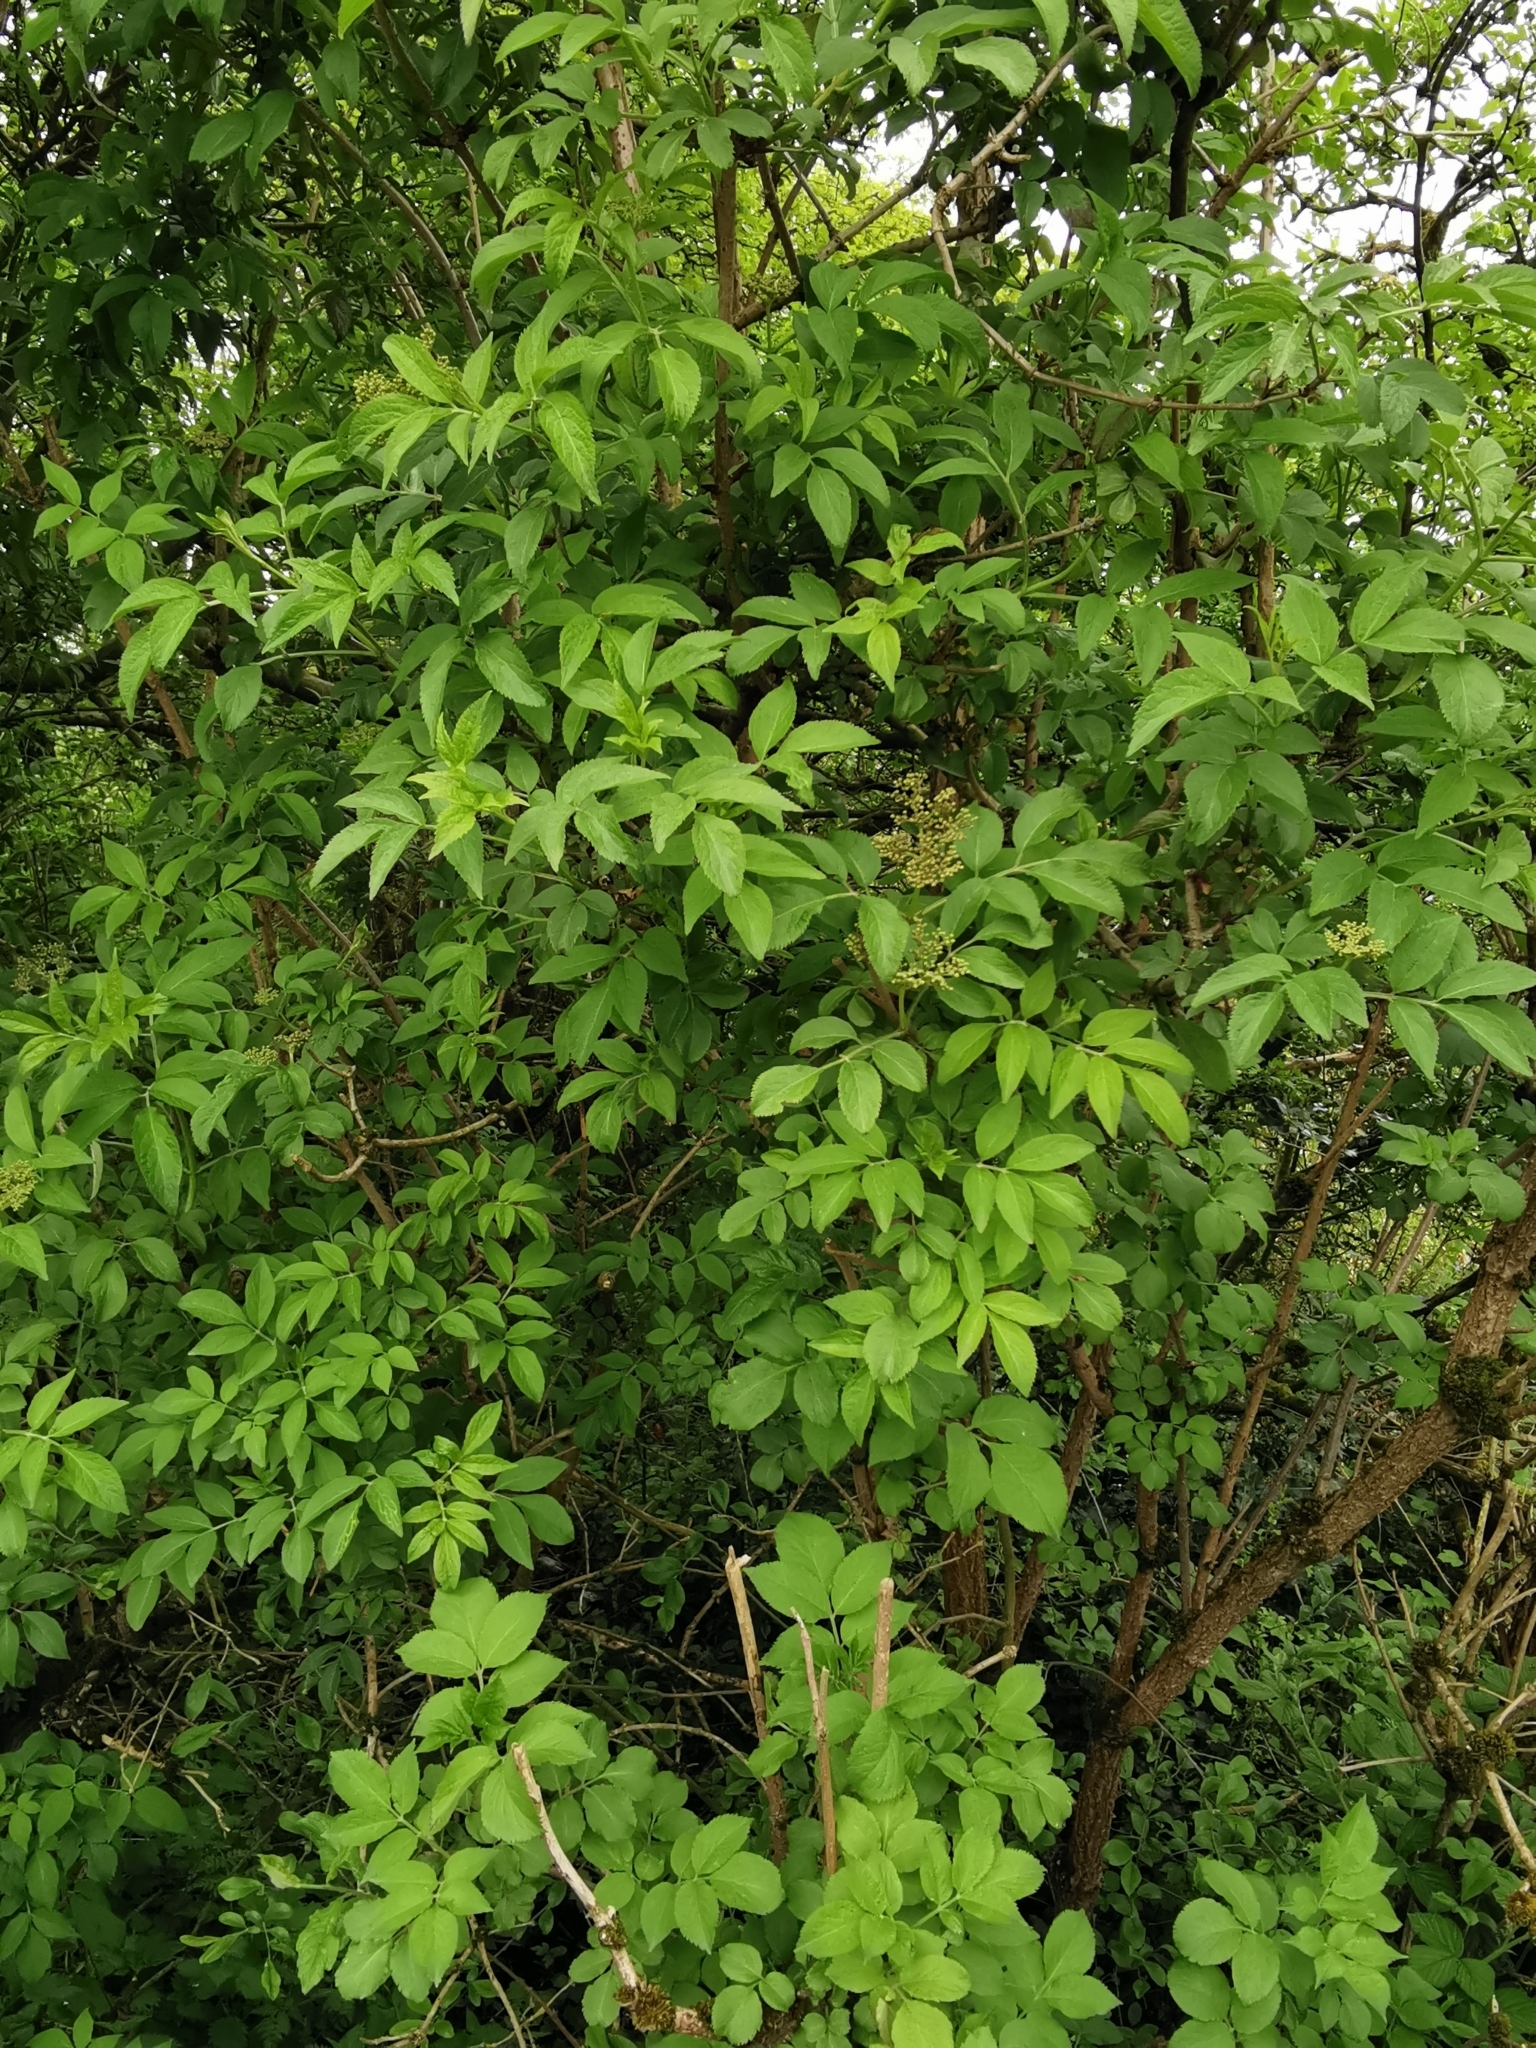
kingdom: Plantae
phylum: Tracheophyta
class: Magnoliopsida
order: Dipsacales
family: Viburnaceae
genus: Sambucus
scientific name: Sambucus nigra
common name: Elder
